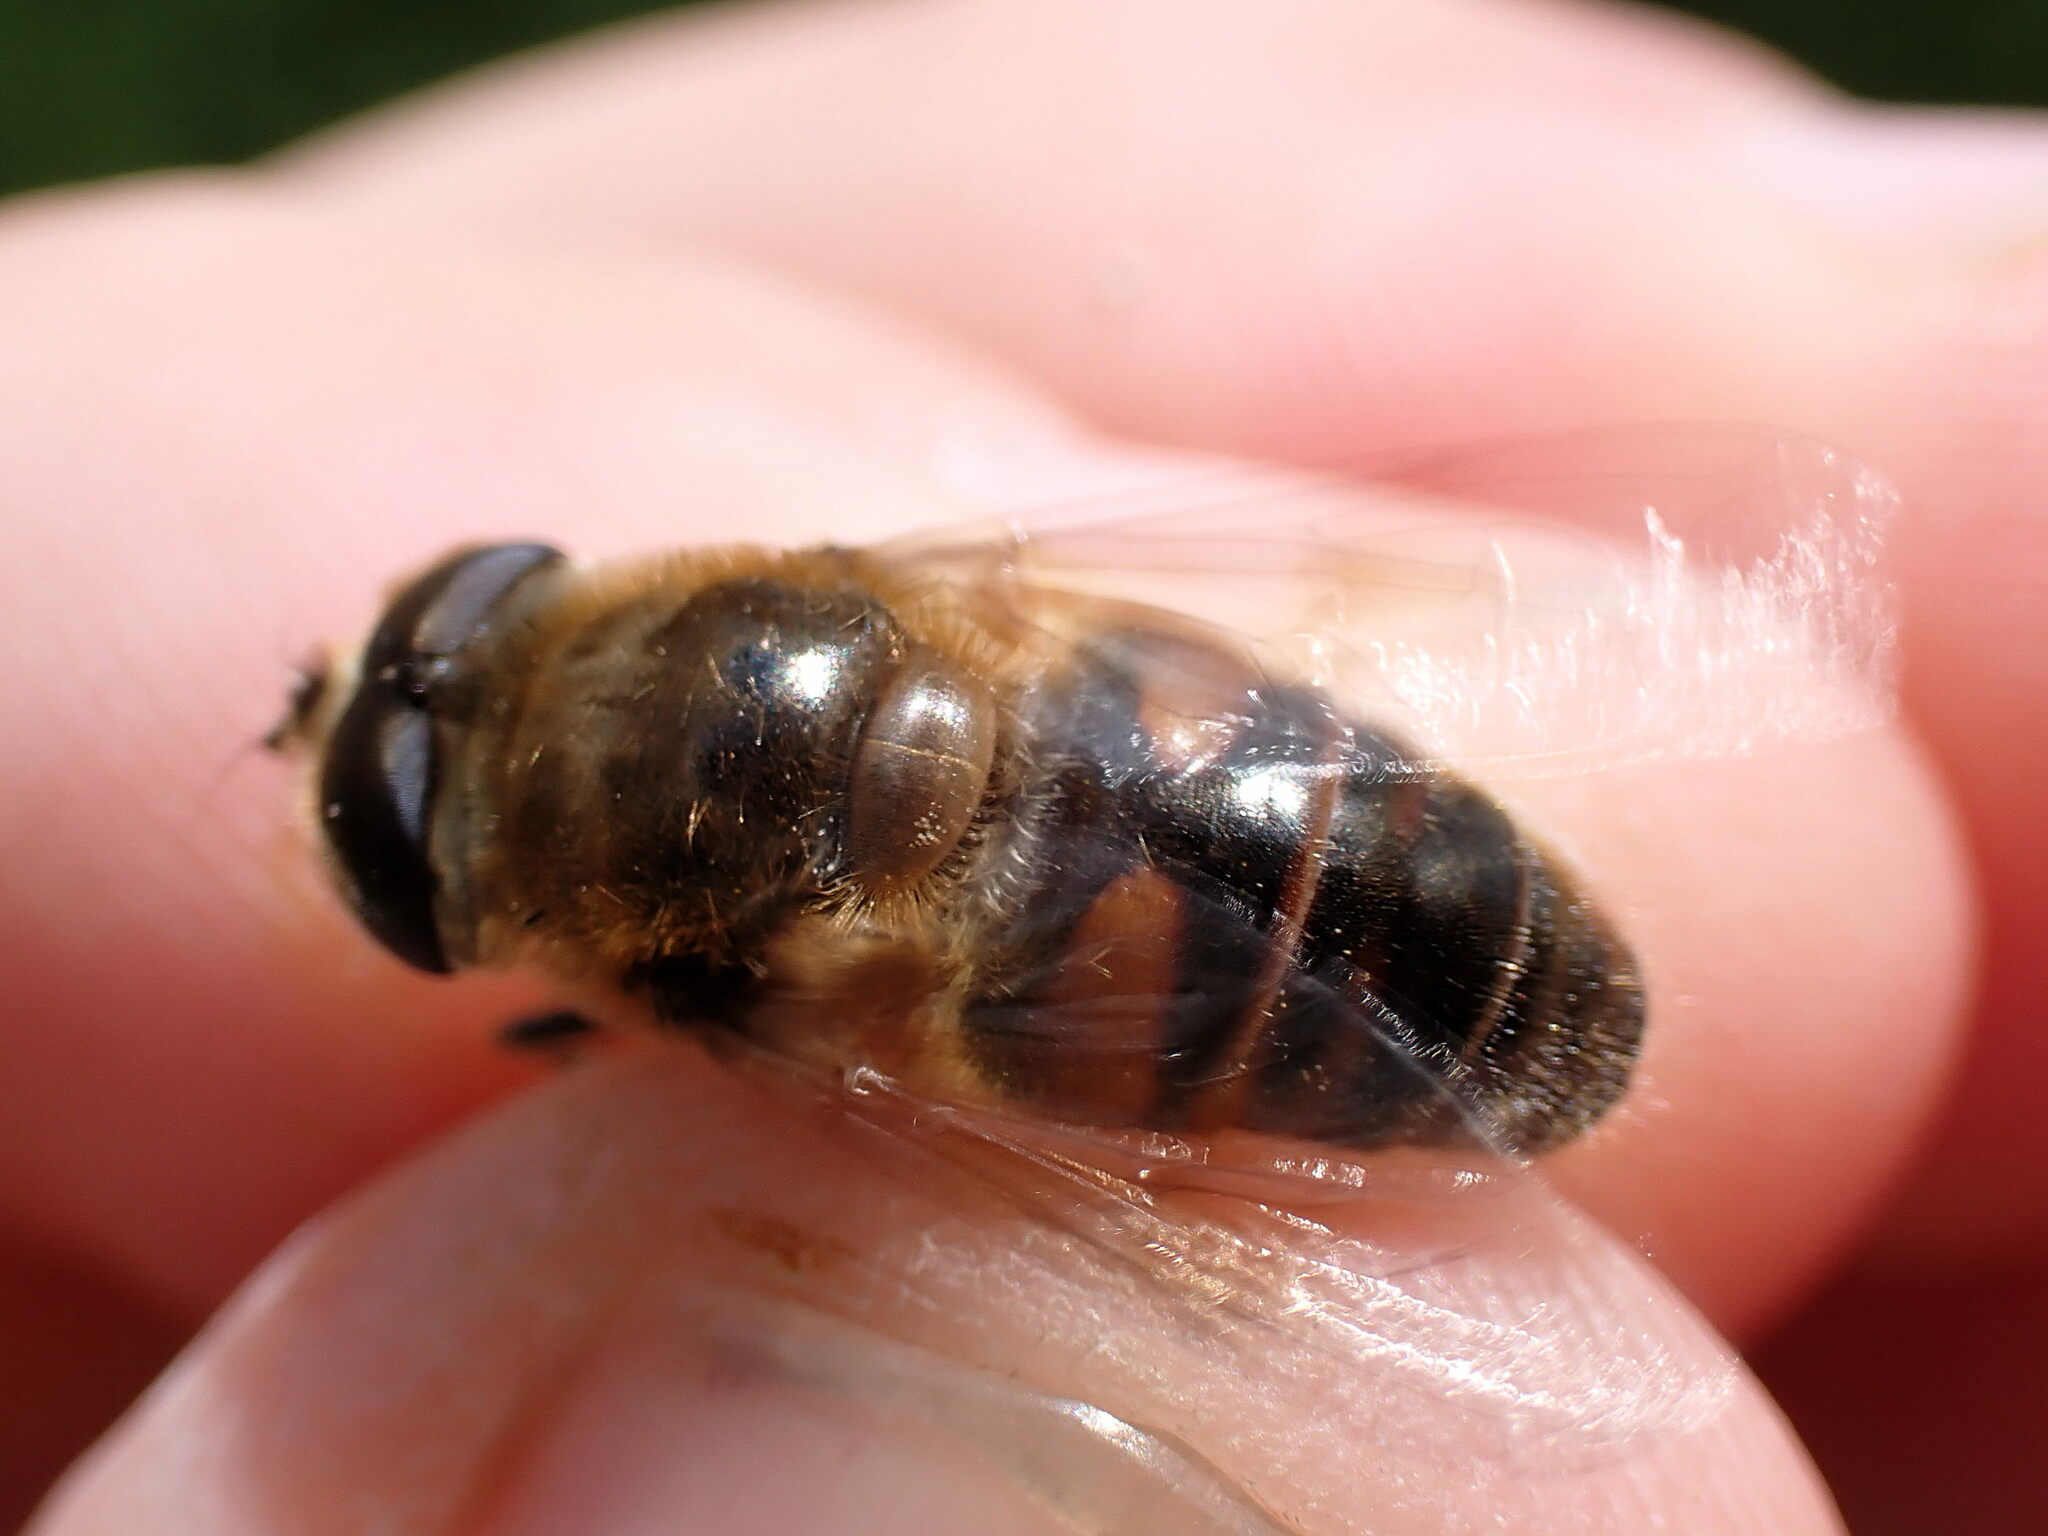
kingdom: Animalia
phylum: Arthropoda
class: Insecta
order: Diptera
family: Syrphidae
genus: Eristalis
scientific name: Eristalis tenax
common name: Drone fly
